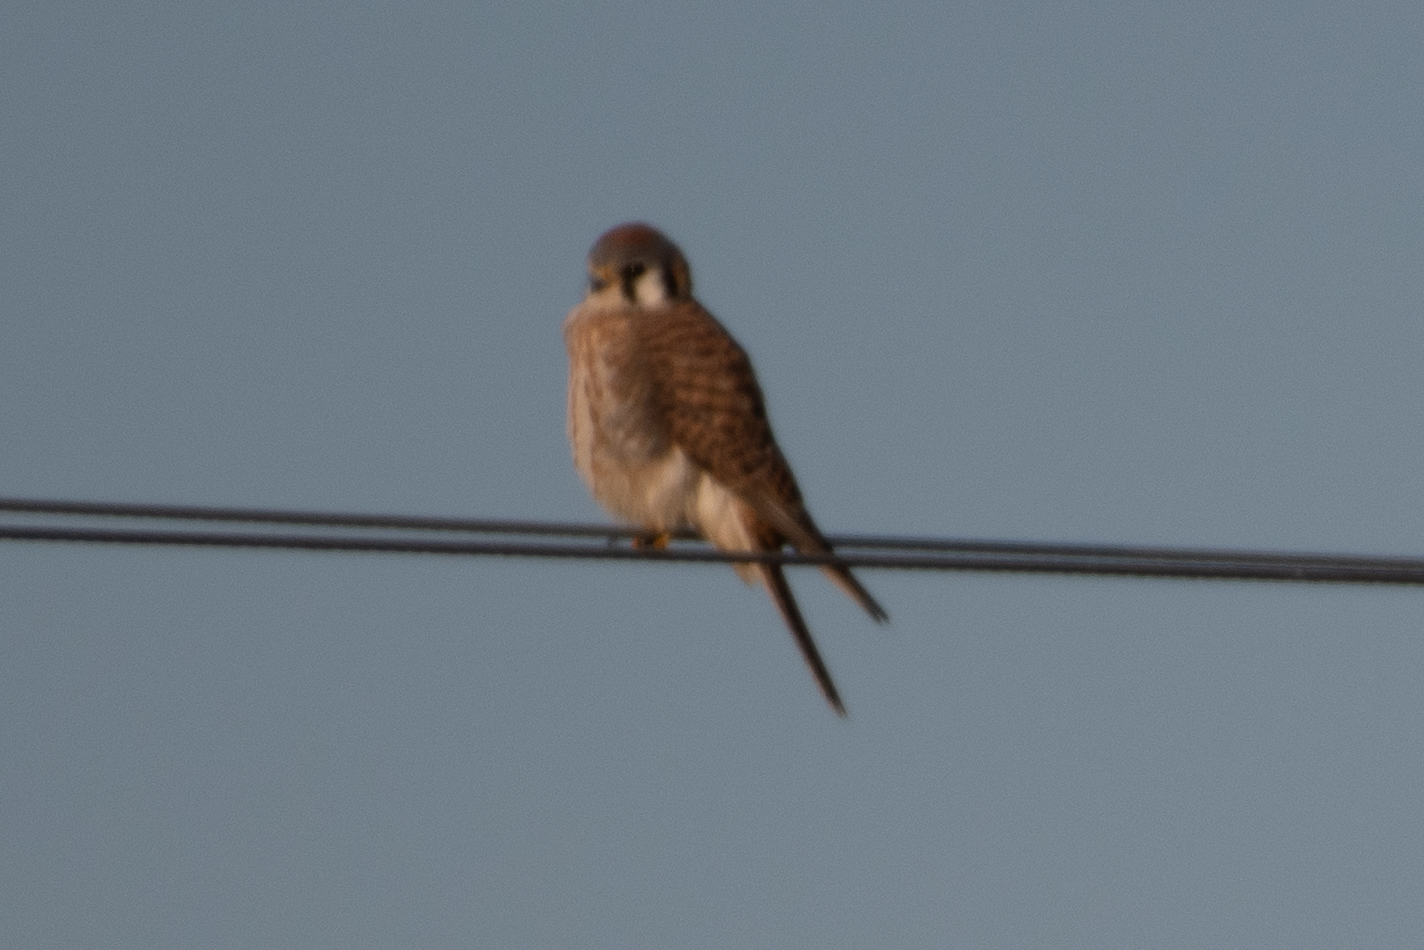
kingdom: Animalia
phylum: Chordata
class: Aves
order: Falconiformes
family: Falconidae
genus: Falco
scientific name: Falco sparverius
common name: American kestrel
